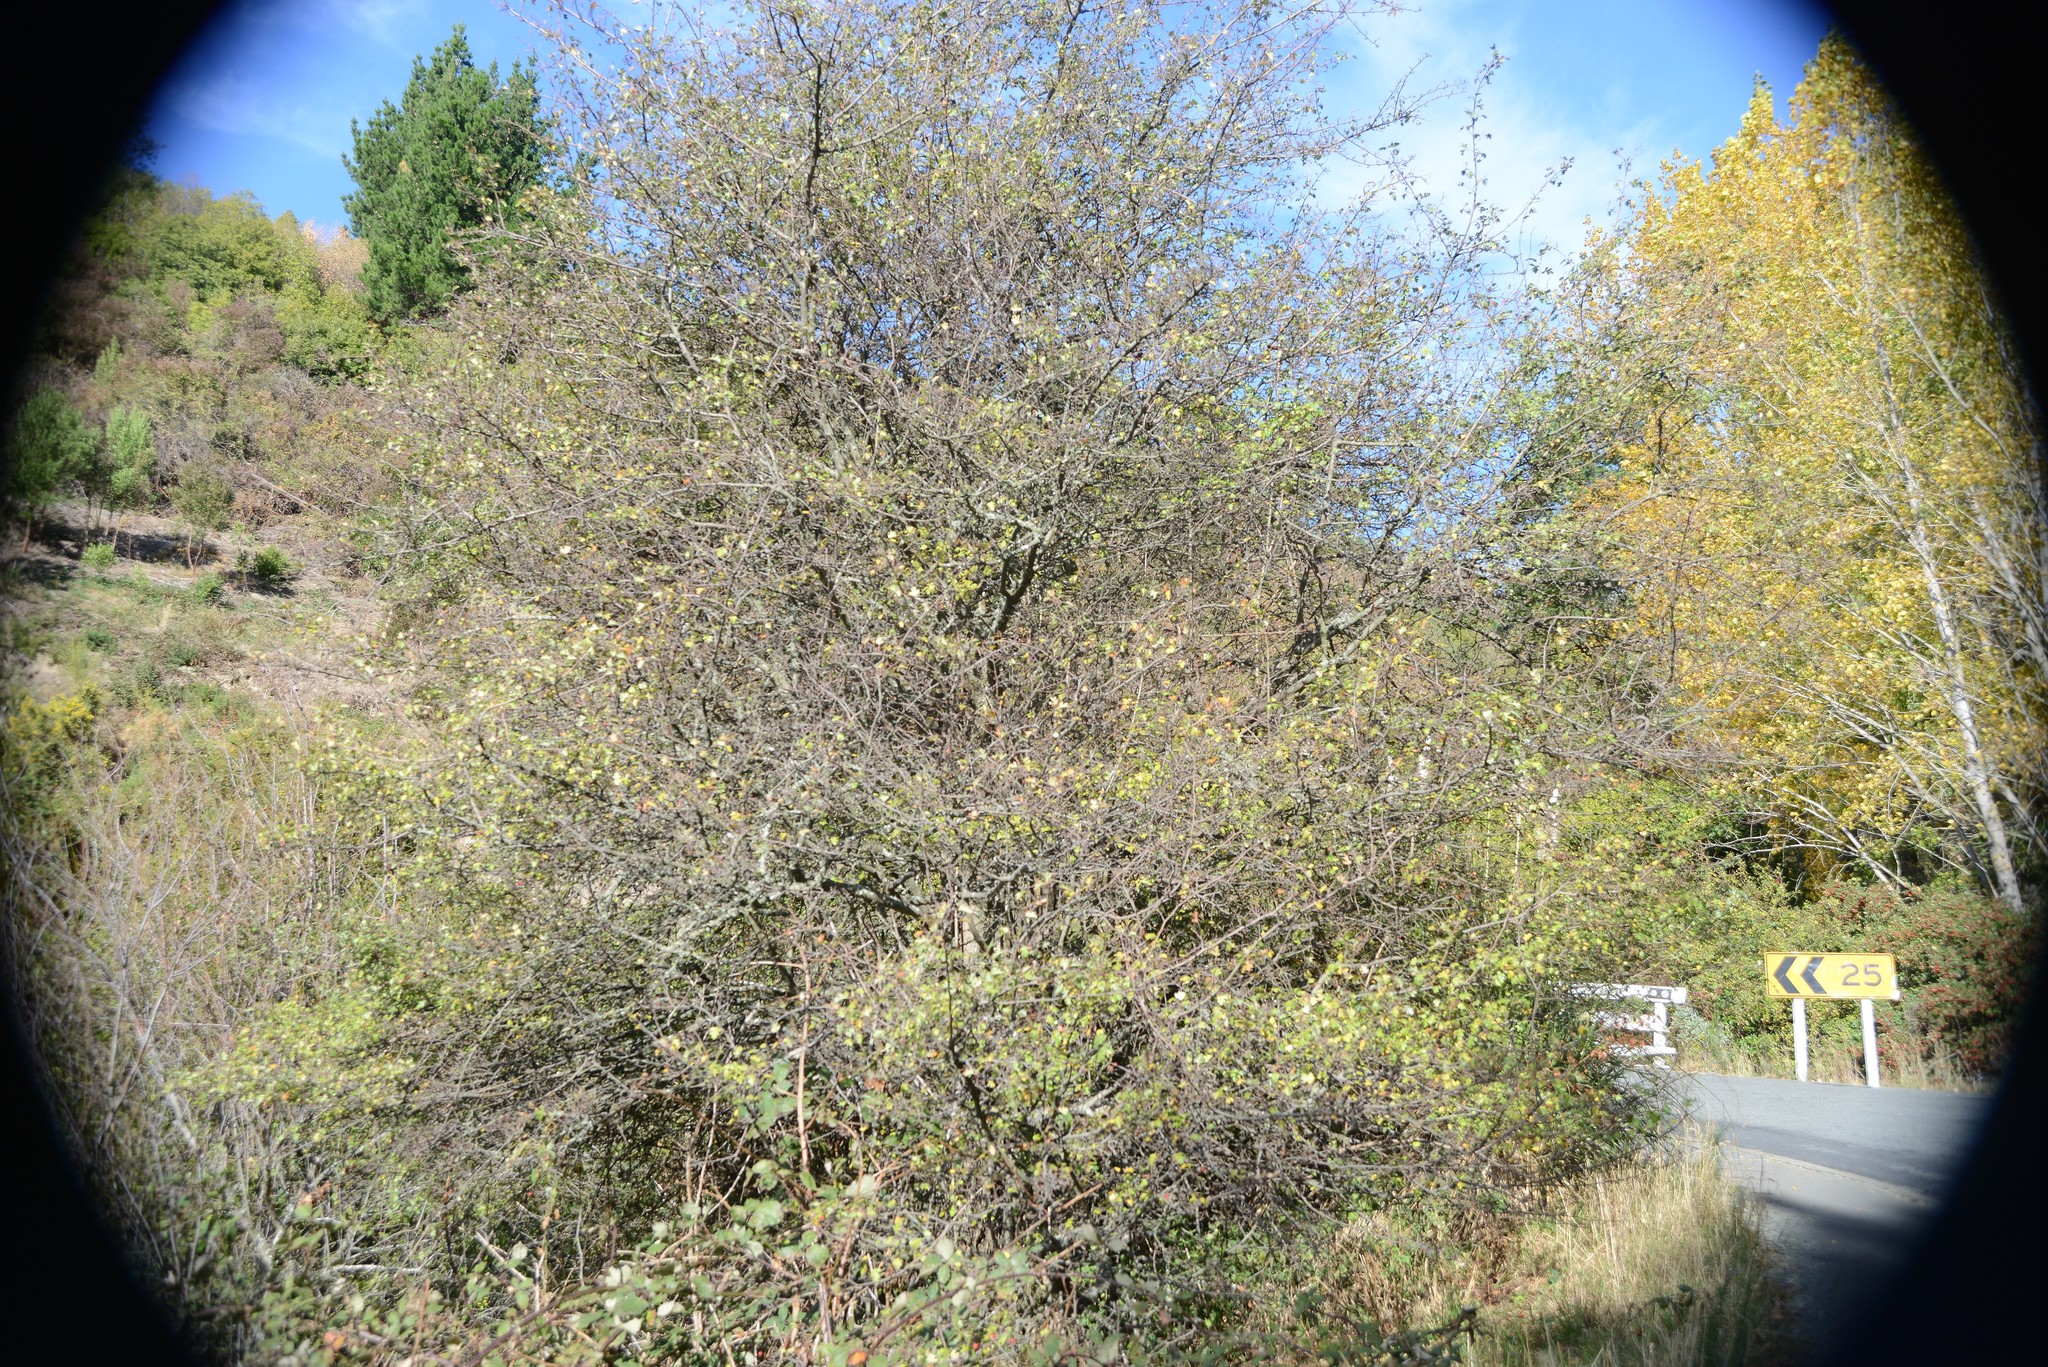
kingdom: Plantae
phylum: Tracheophyta
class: Magnoliopsida
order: Rosales
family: Rosaceae
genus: Crataegus
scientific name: Crataegus monogyna
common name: Hawthorn
